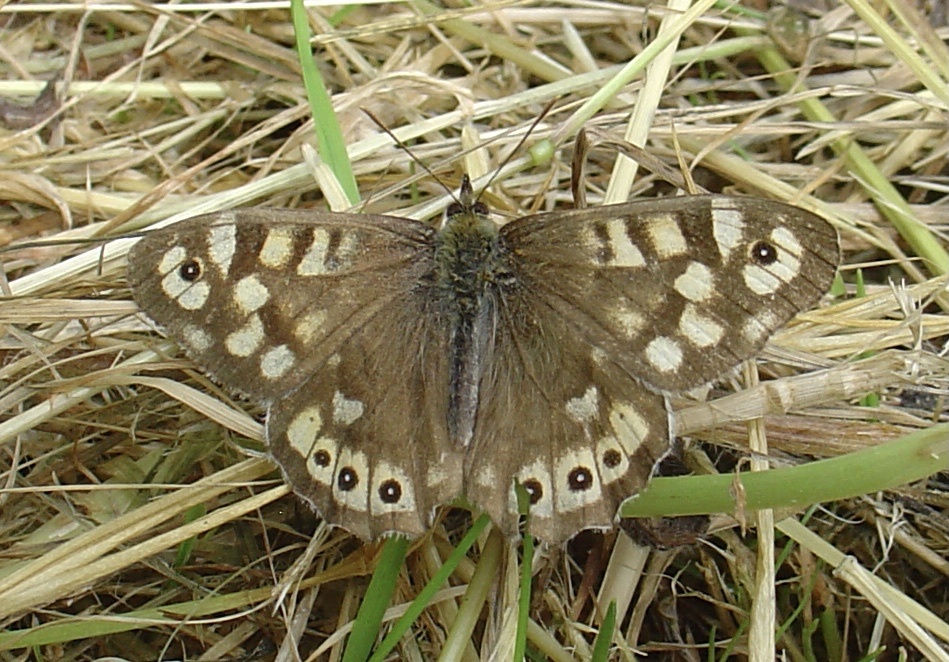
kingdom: Animalia
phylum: Arthropoda
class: Insecta
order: Lepidoptera
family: Nymphalidae
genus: Pararge
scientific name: Pararge aegeria
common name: Speckled wood
